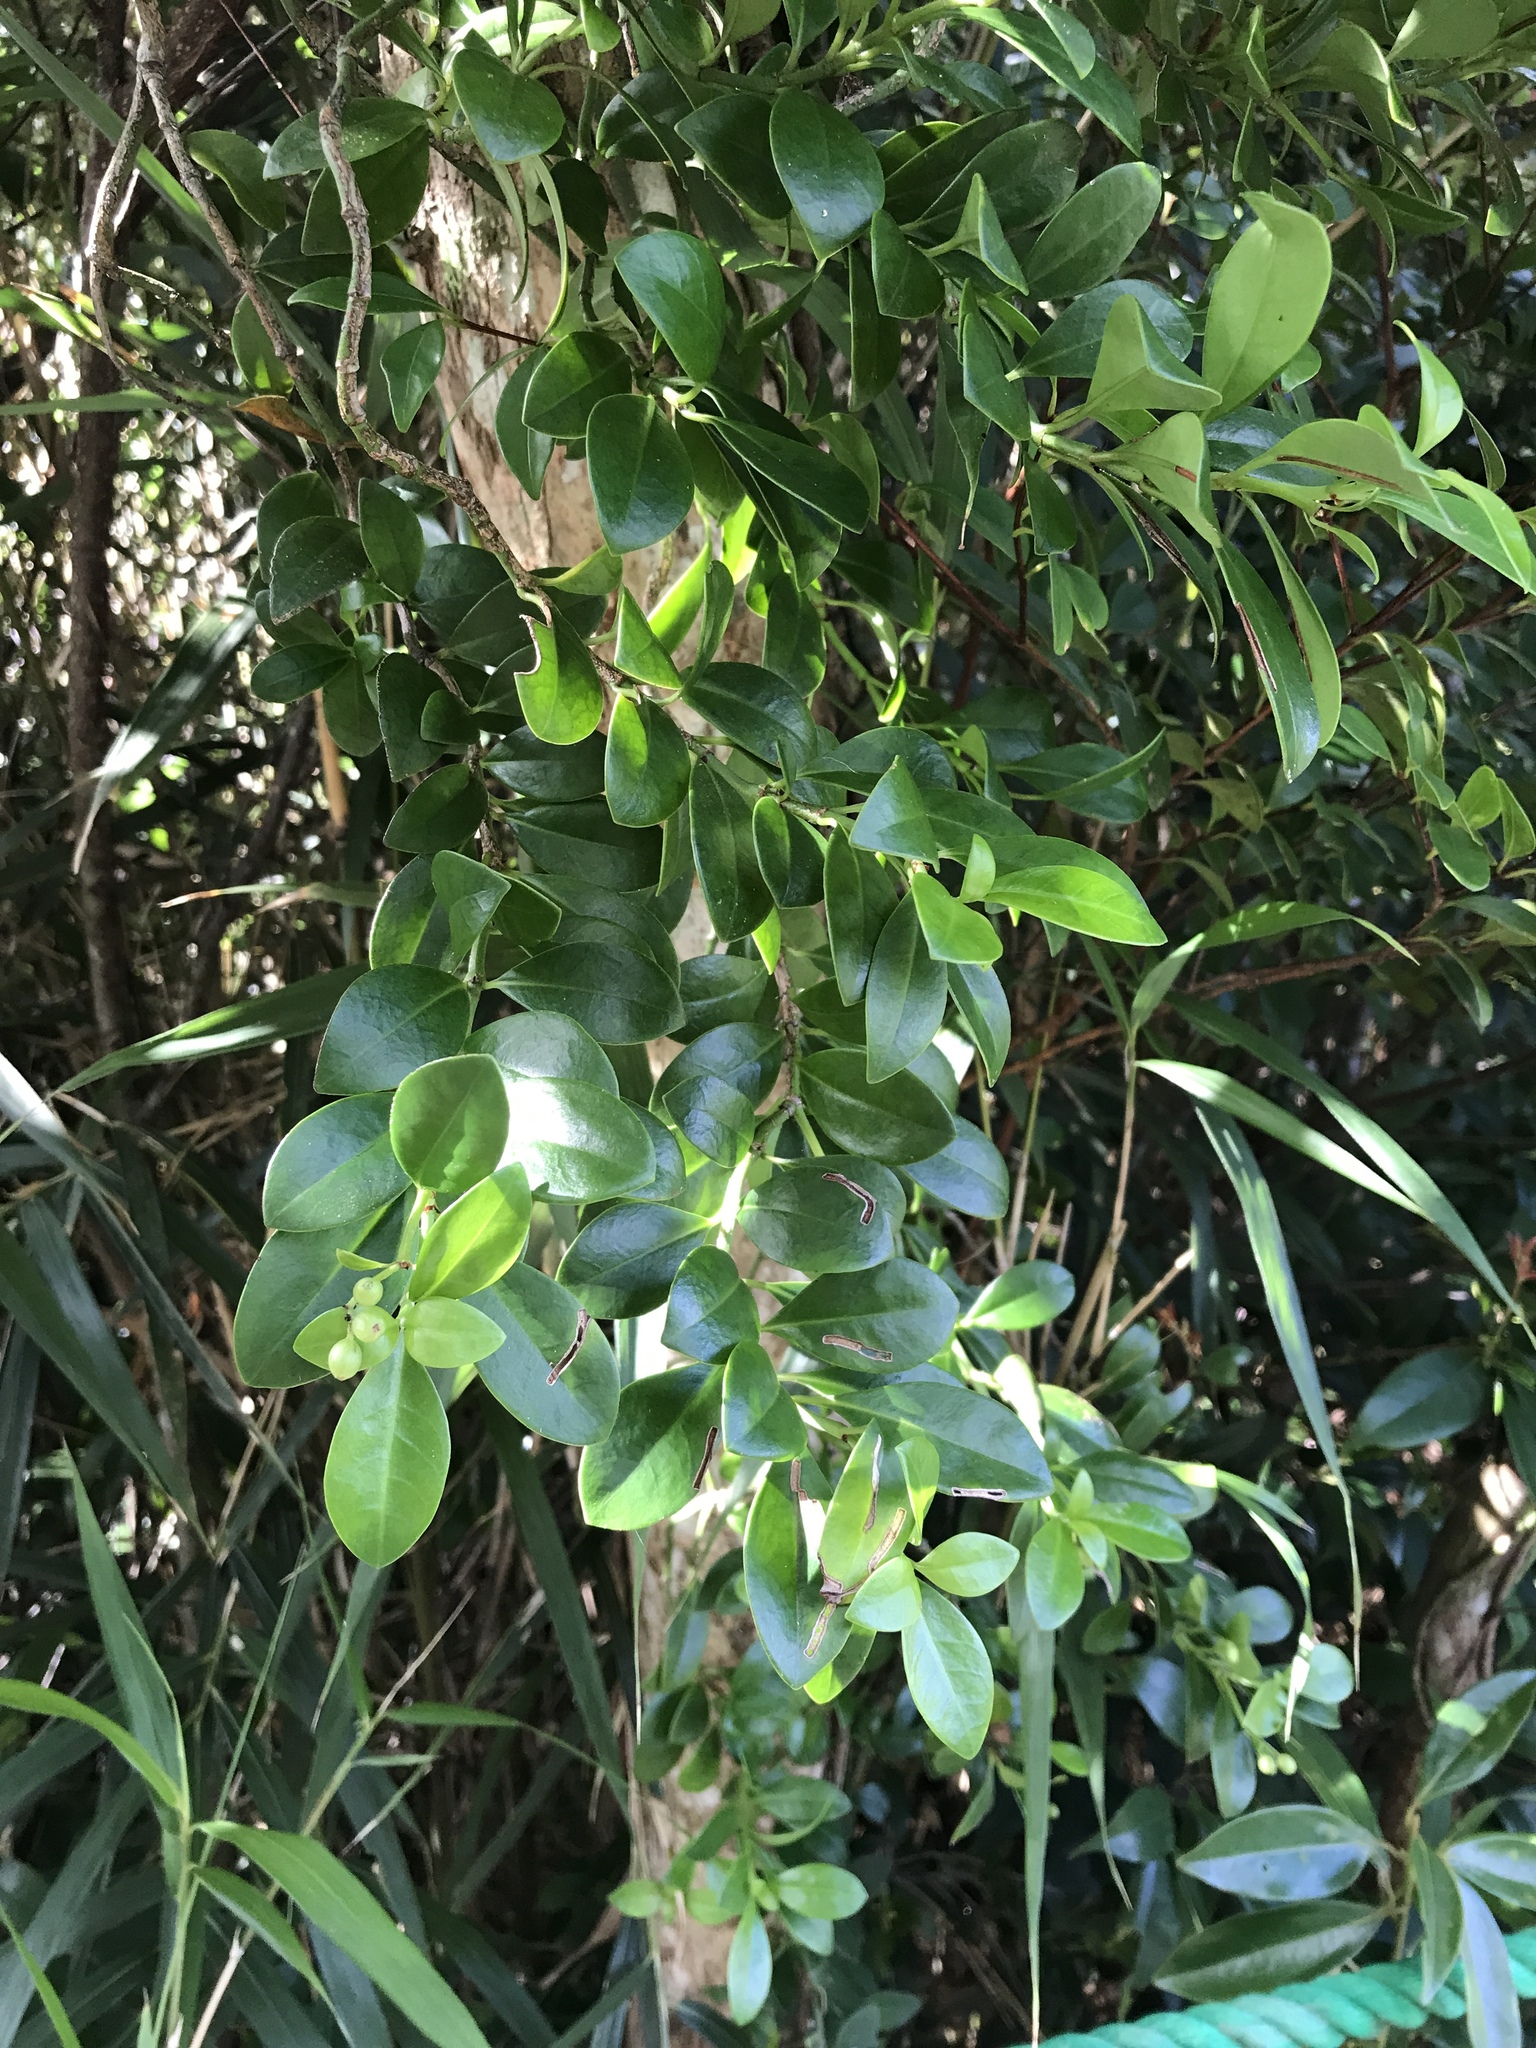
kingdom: Plantae
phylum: Tracheophyta
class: Magnoliopsida
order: Gentianales
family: Rubiaceae
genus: Psychotria
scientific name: Psychotria serpens
